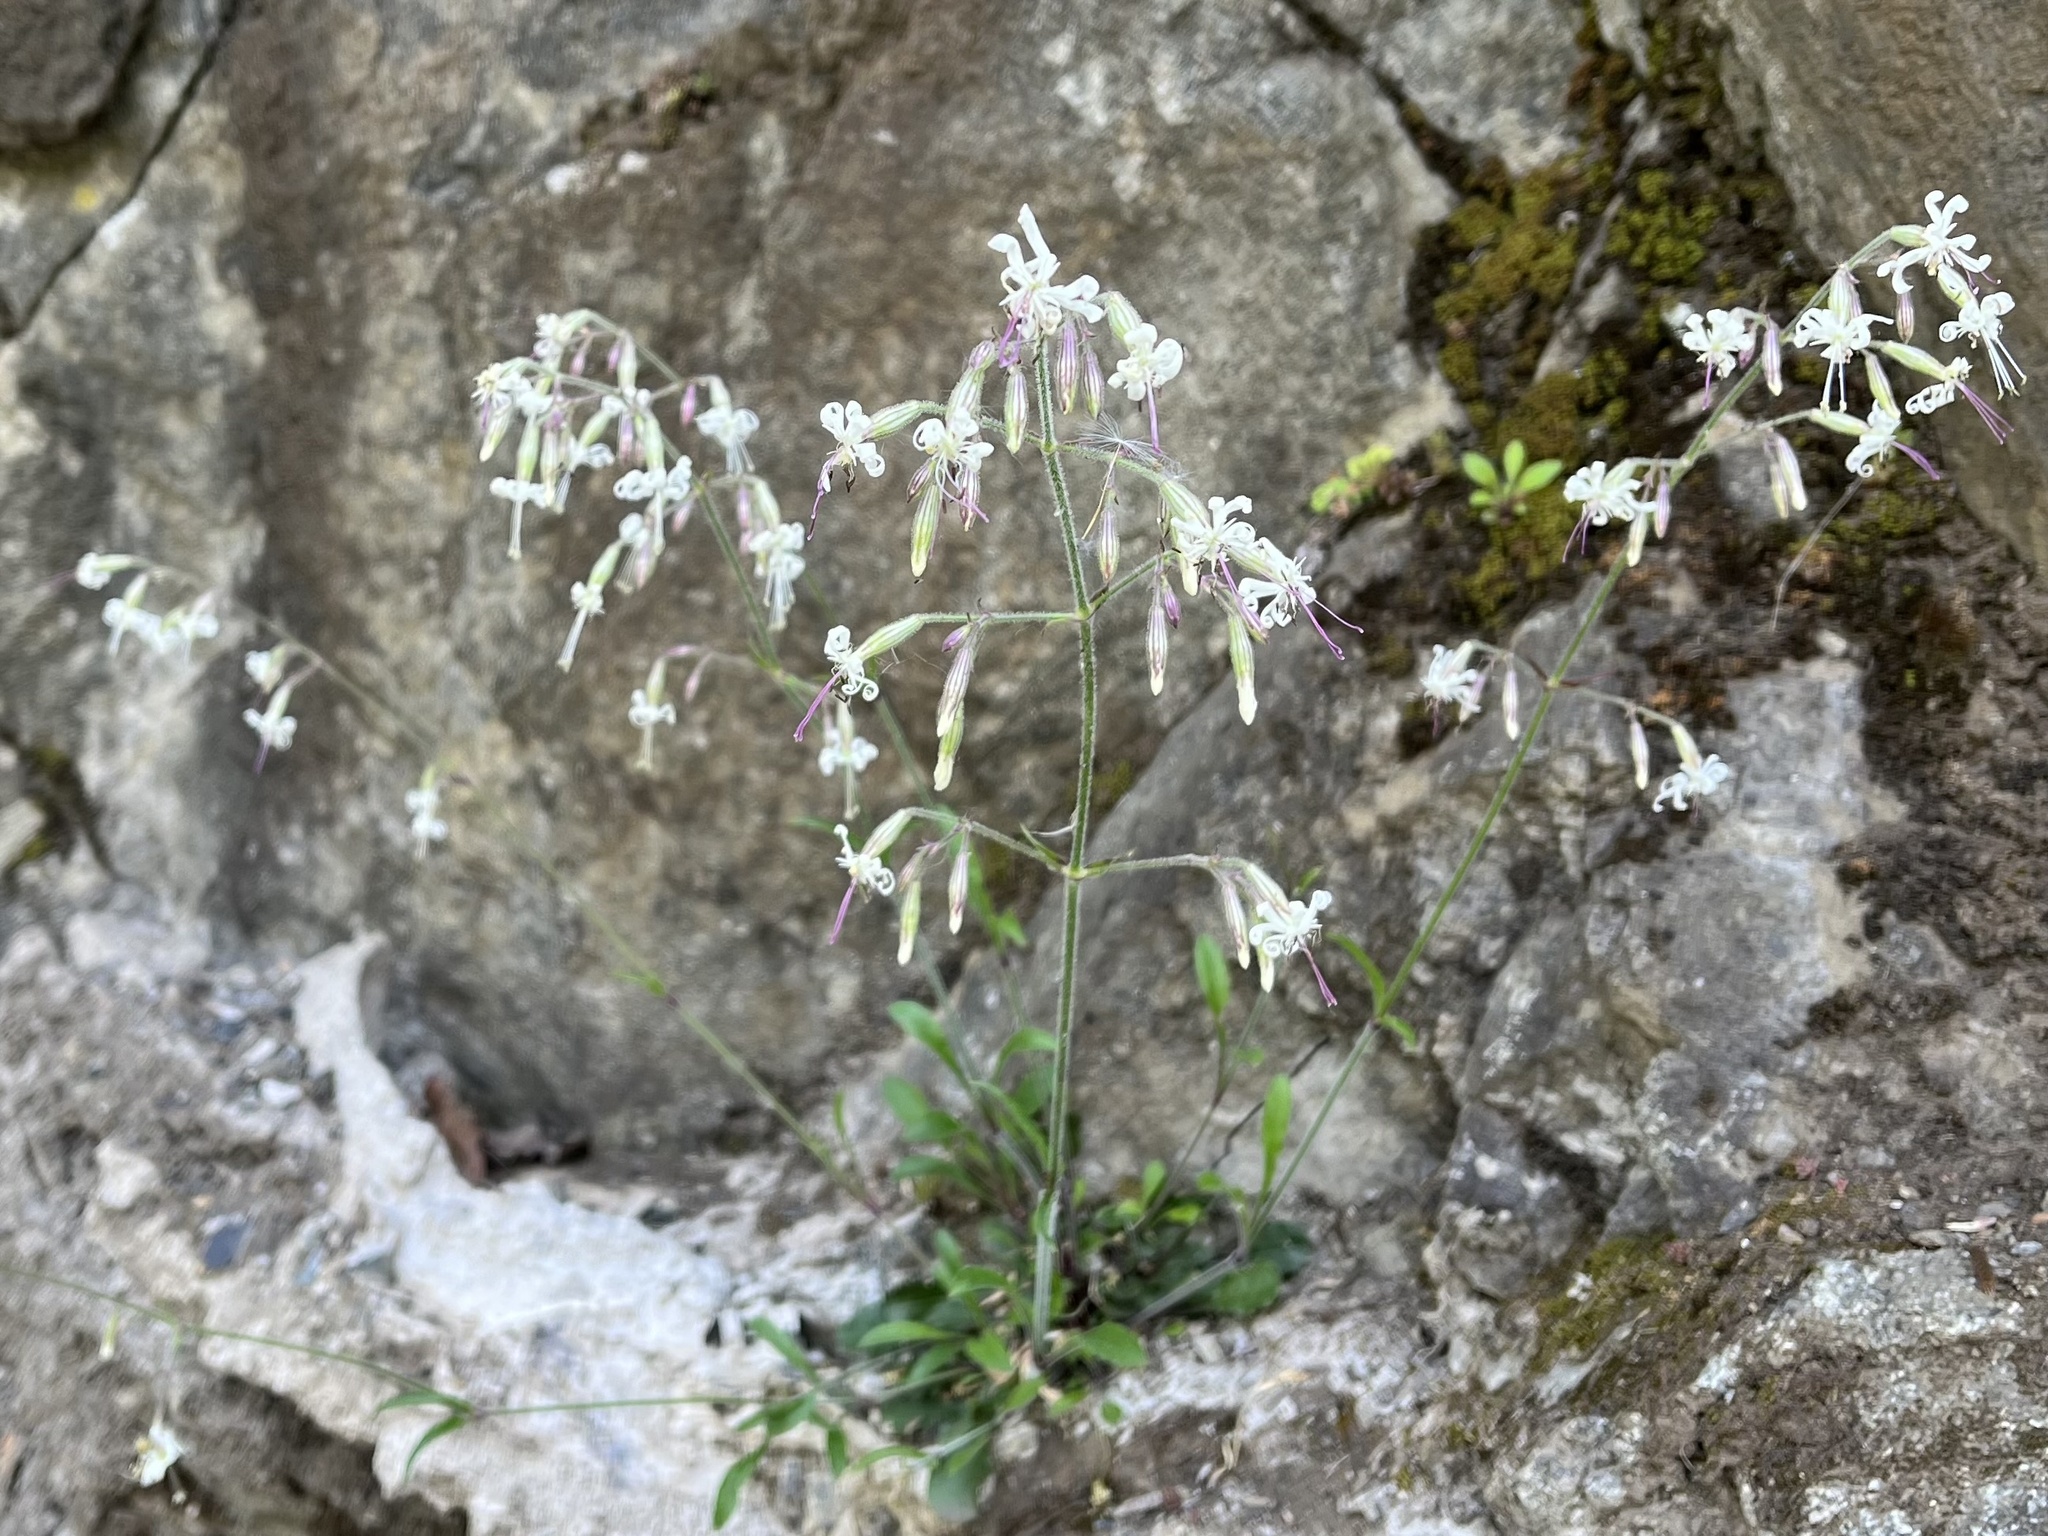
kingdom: Plantae
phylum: Tracheophyta
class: Magnoliopsida
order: Caryophyllales
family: Caryophyllaceae
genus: Silene
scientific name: Silene nutans
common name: Nottingham catchfly
